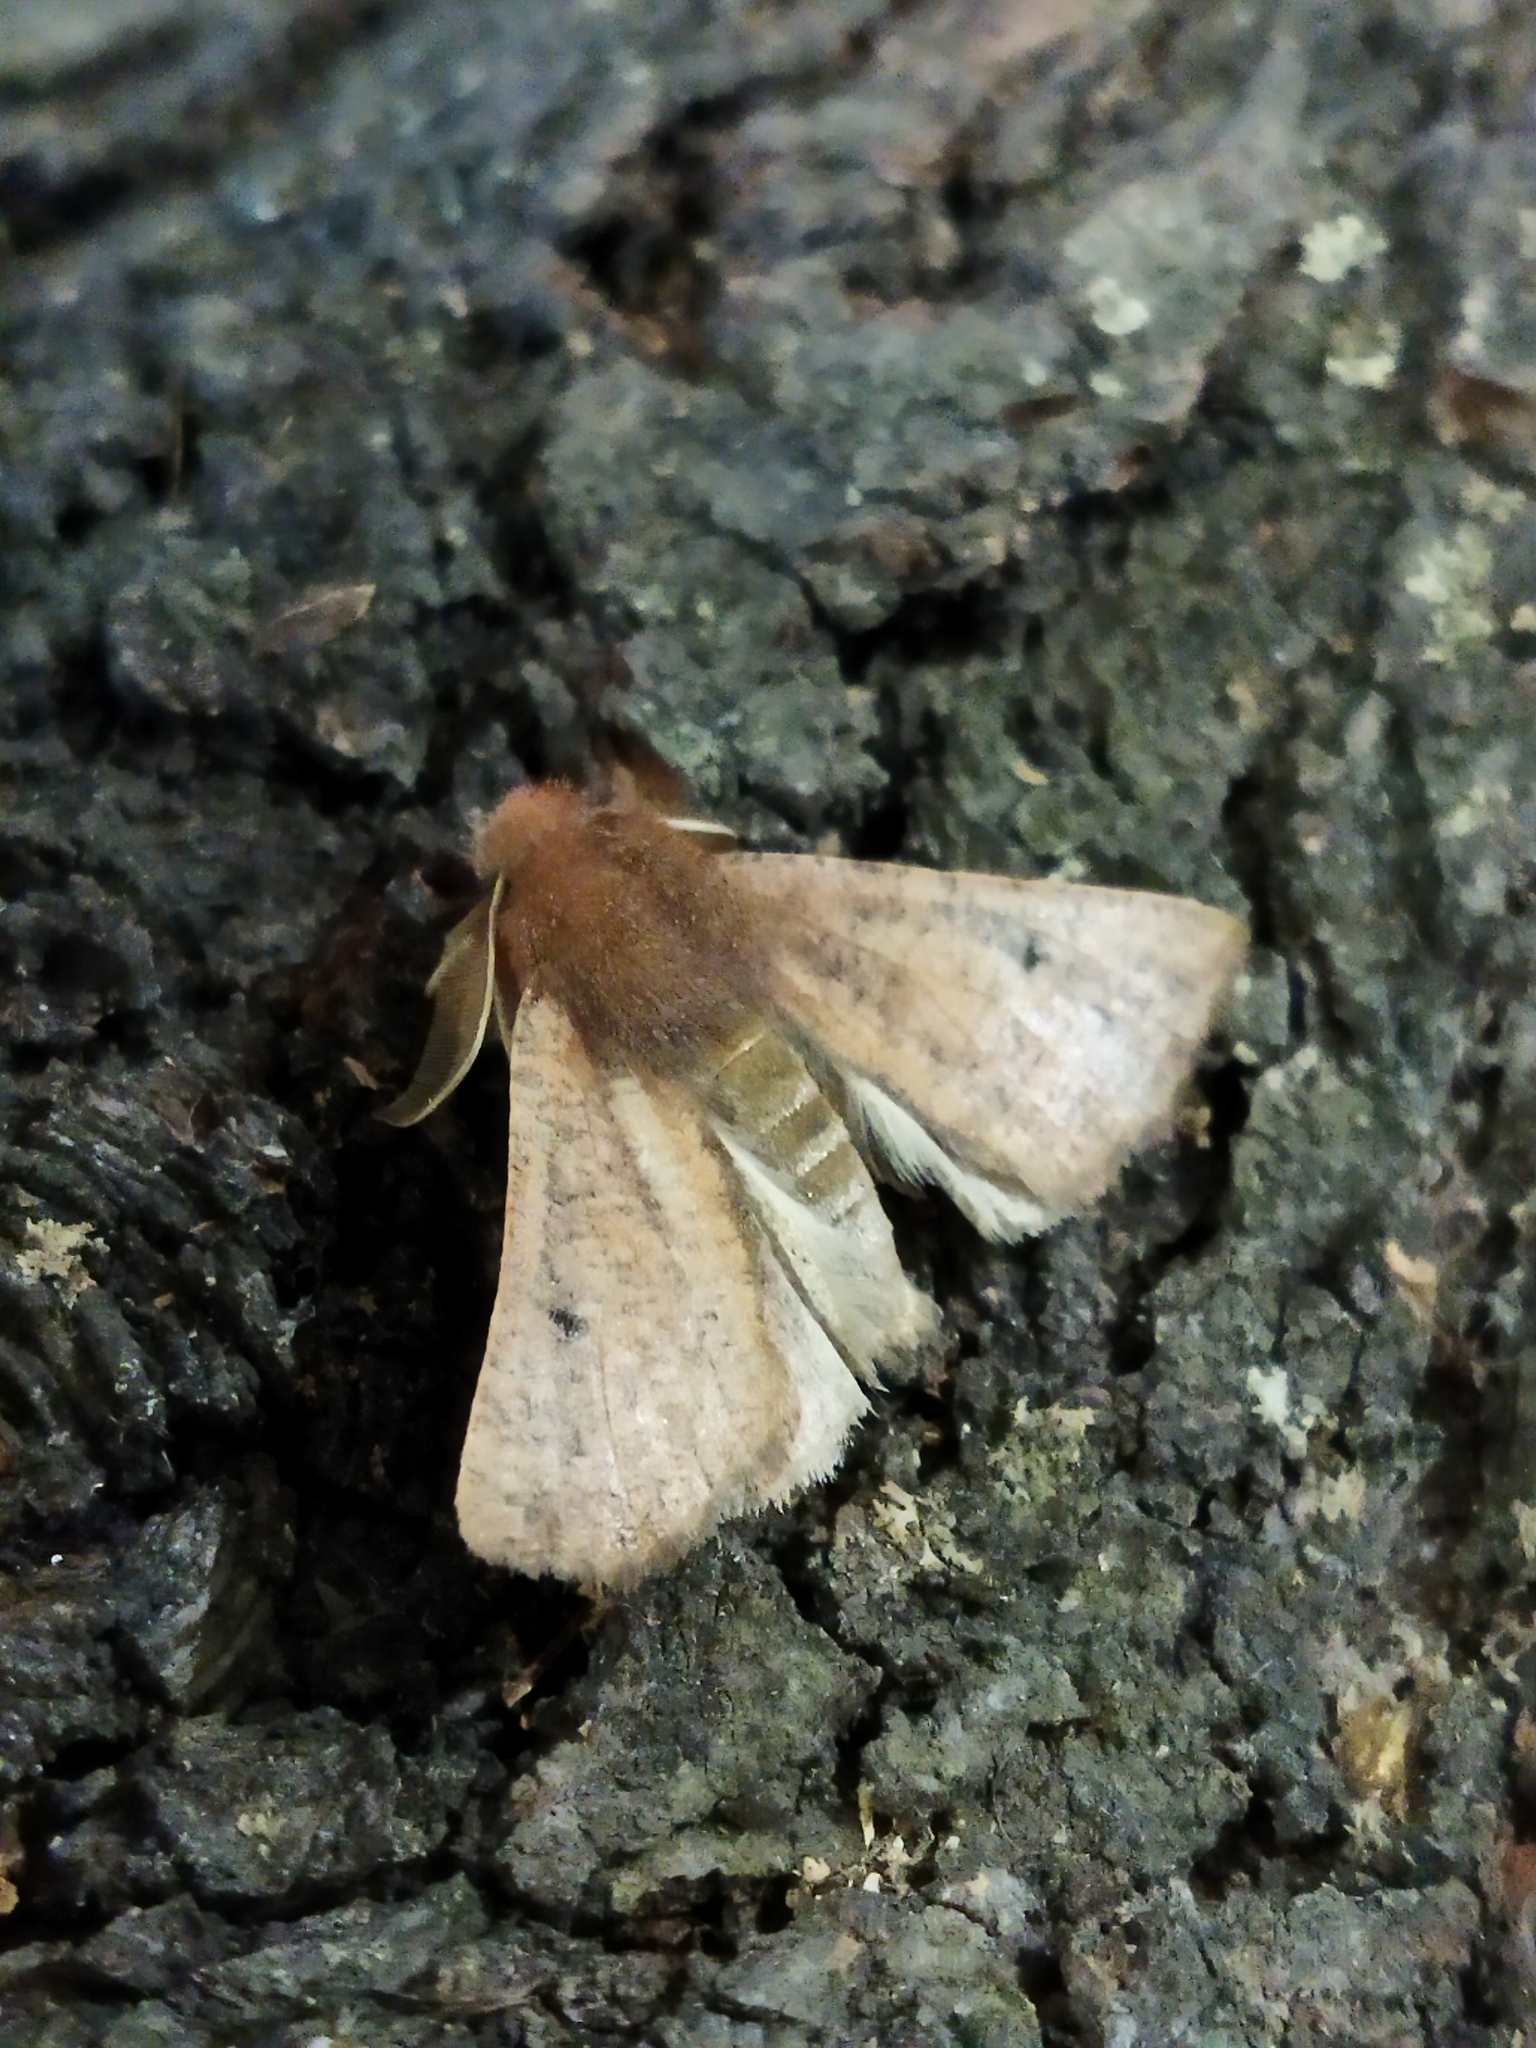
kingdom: Animalia
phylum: Arthropoda
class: Insecta
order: Lepidoptera
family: Geometridae
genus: Dasycorsa
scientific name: Dasycorsa modesta
